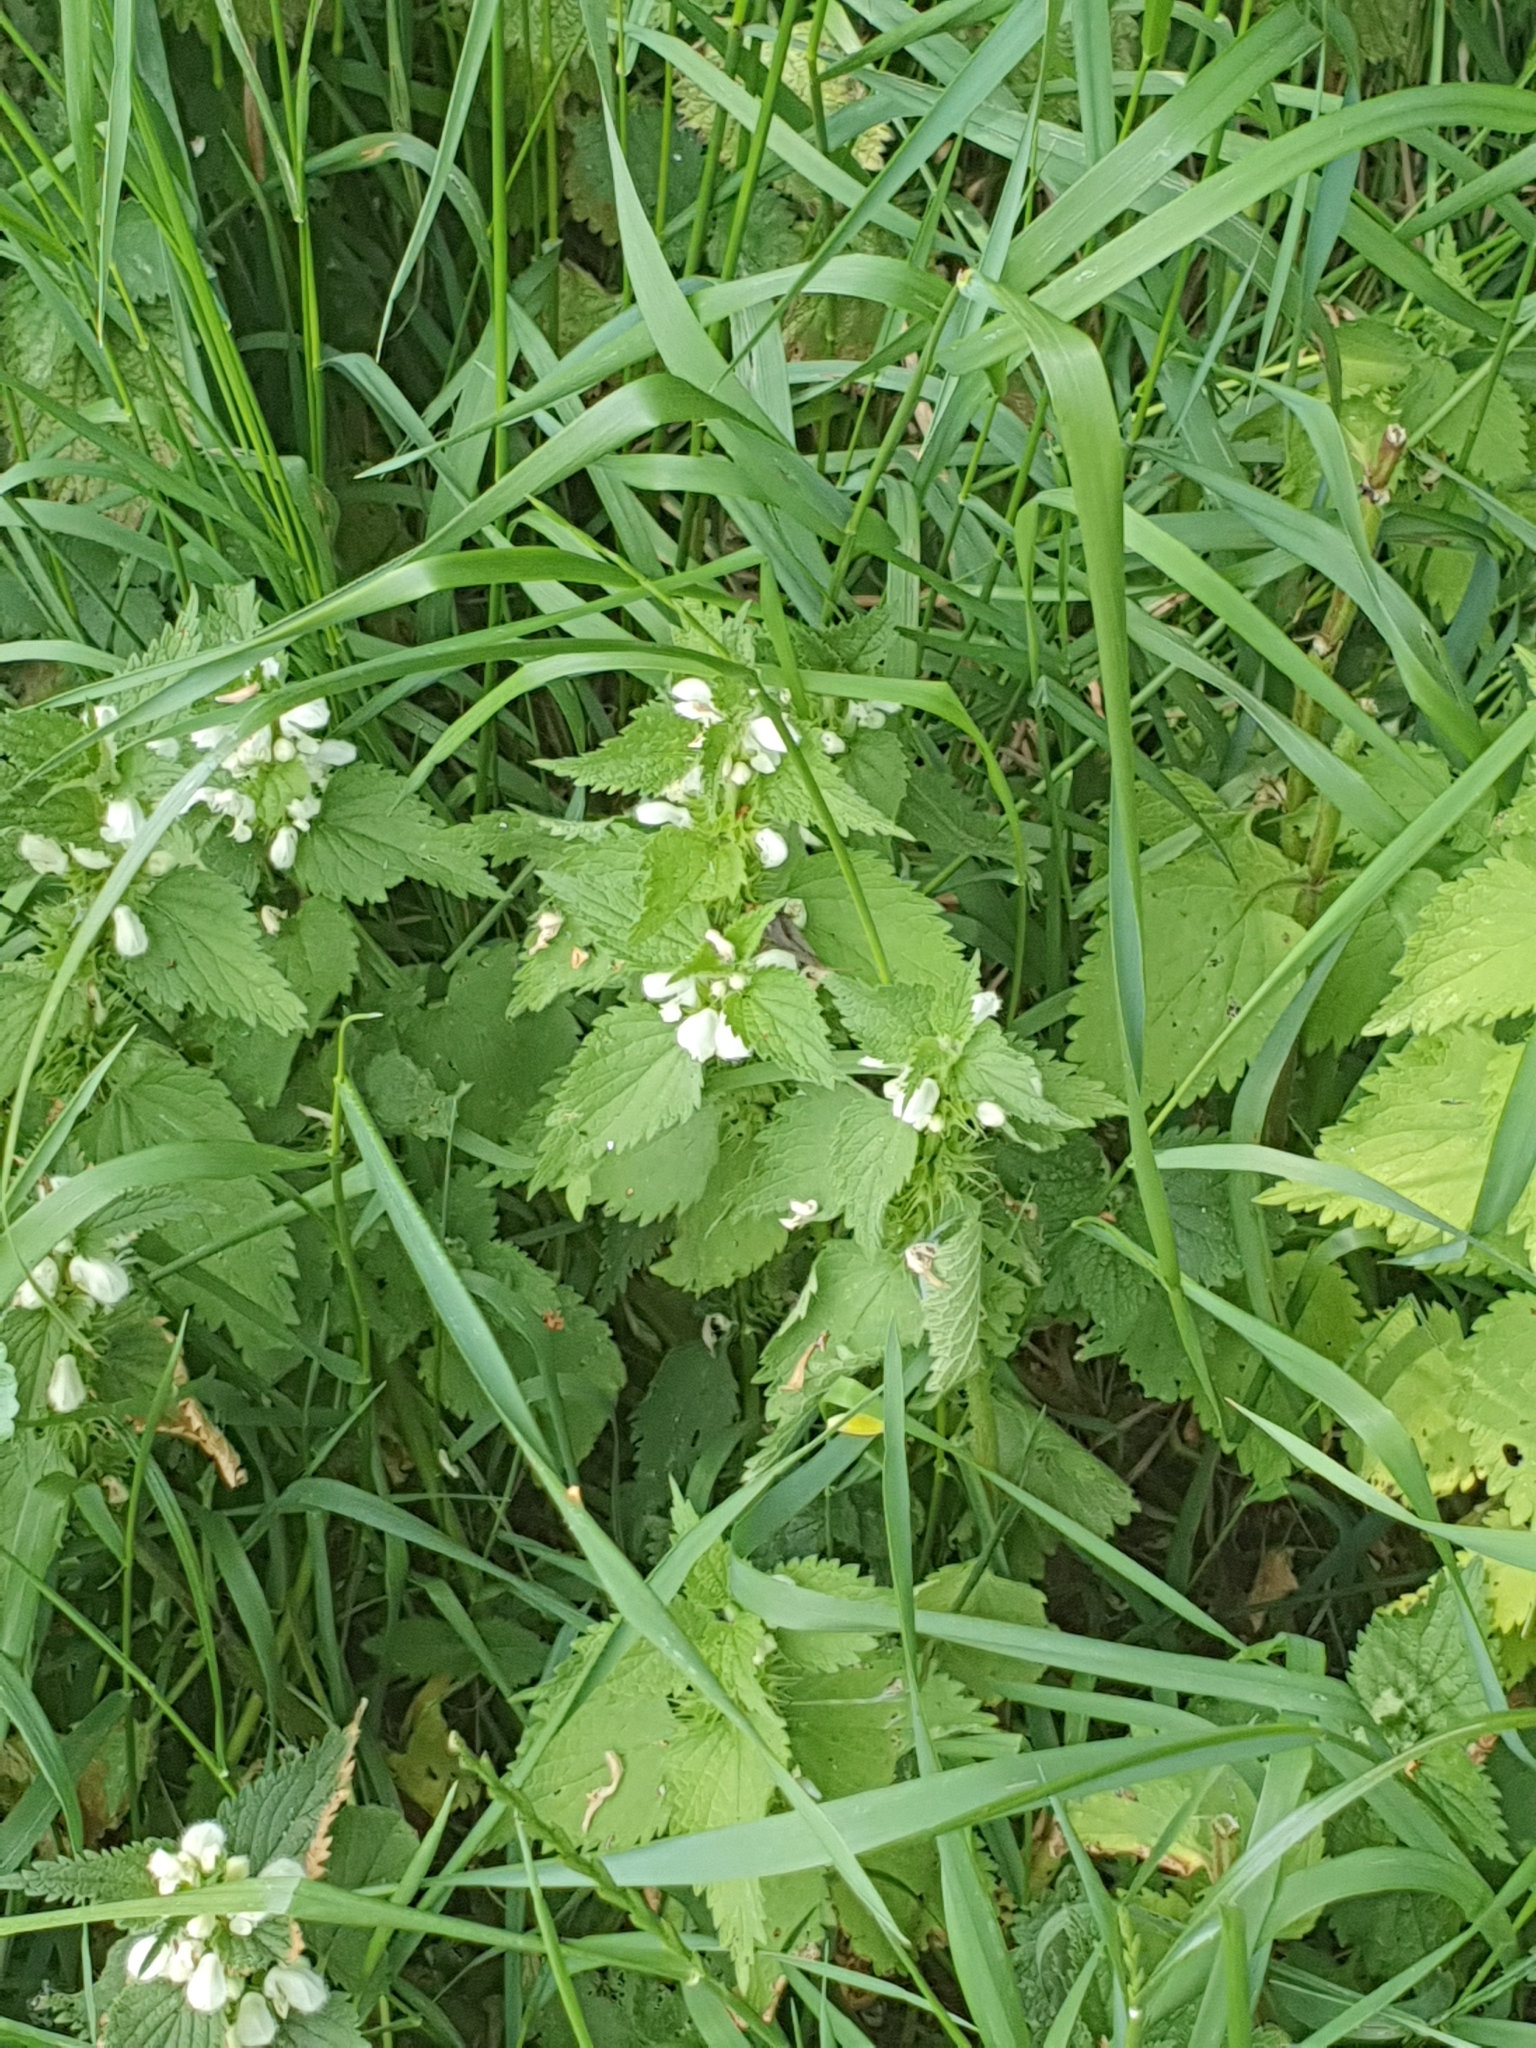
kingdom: Plantae
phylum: Tracheophyta
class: Magnoliopsida
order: Lamiales
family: Lamiaceae
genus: Lamium
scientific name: Lamium album
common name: White dead-nettle
